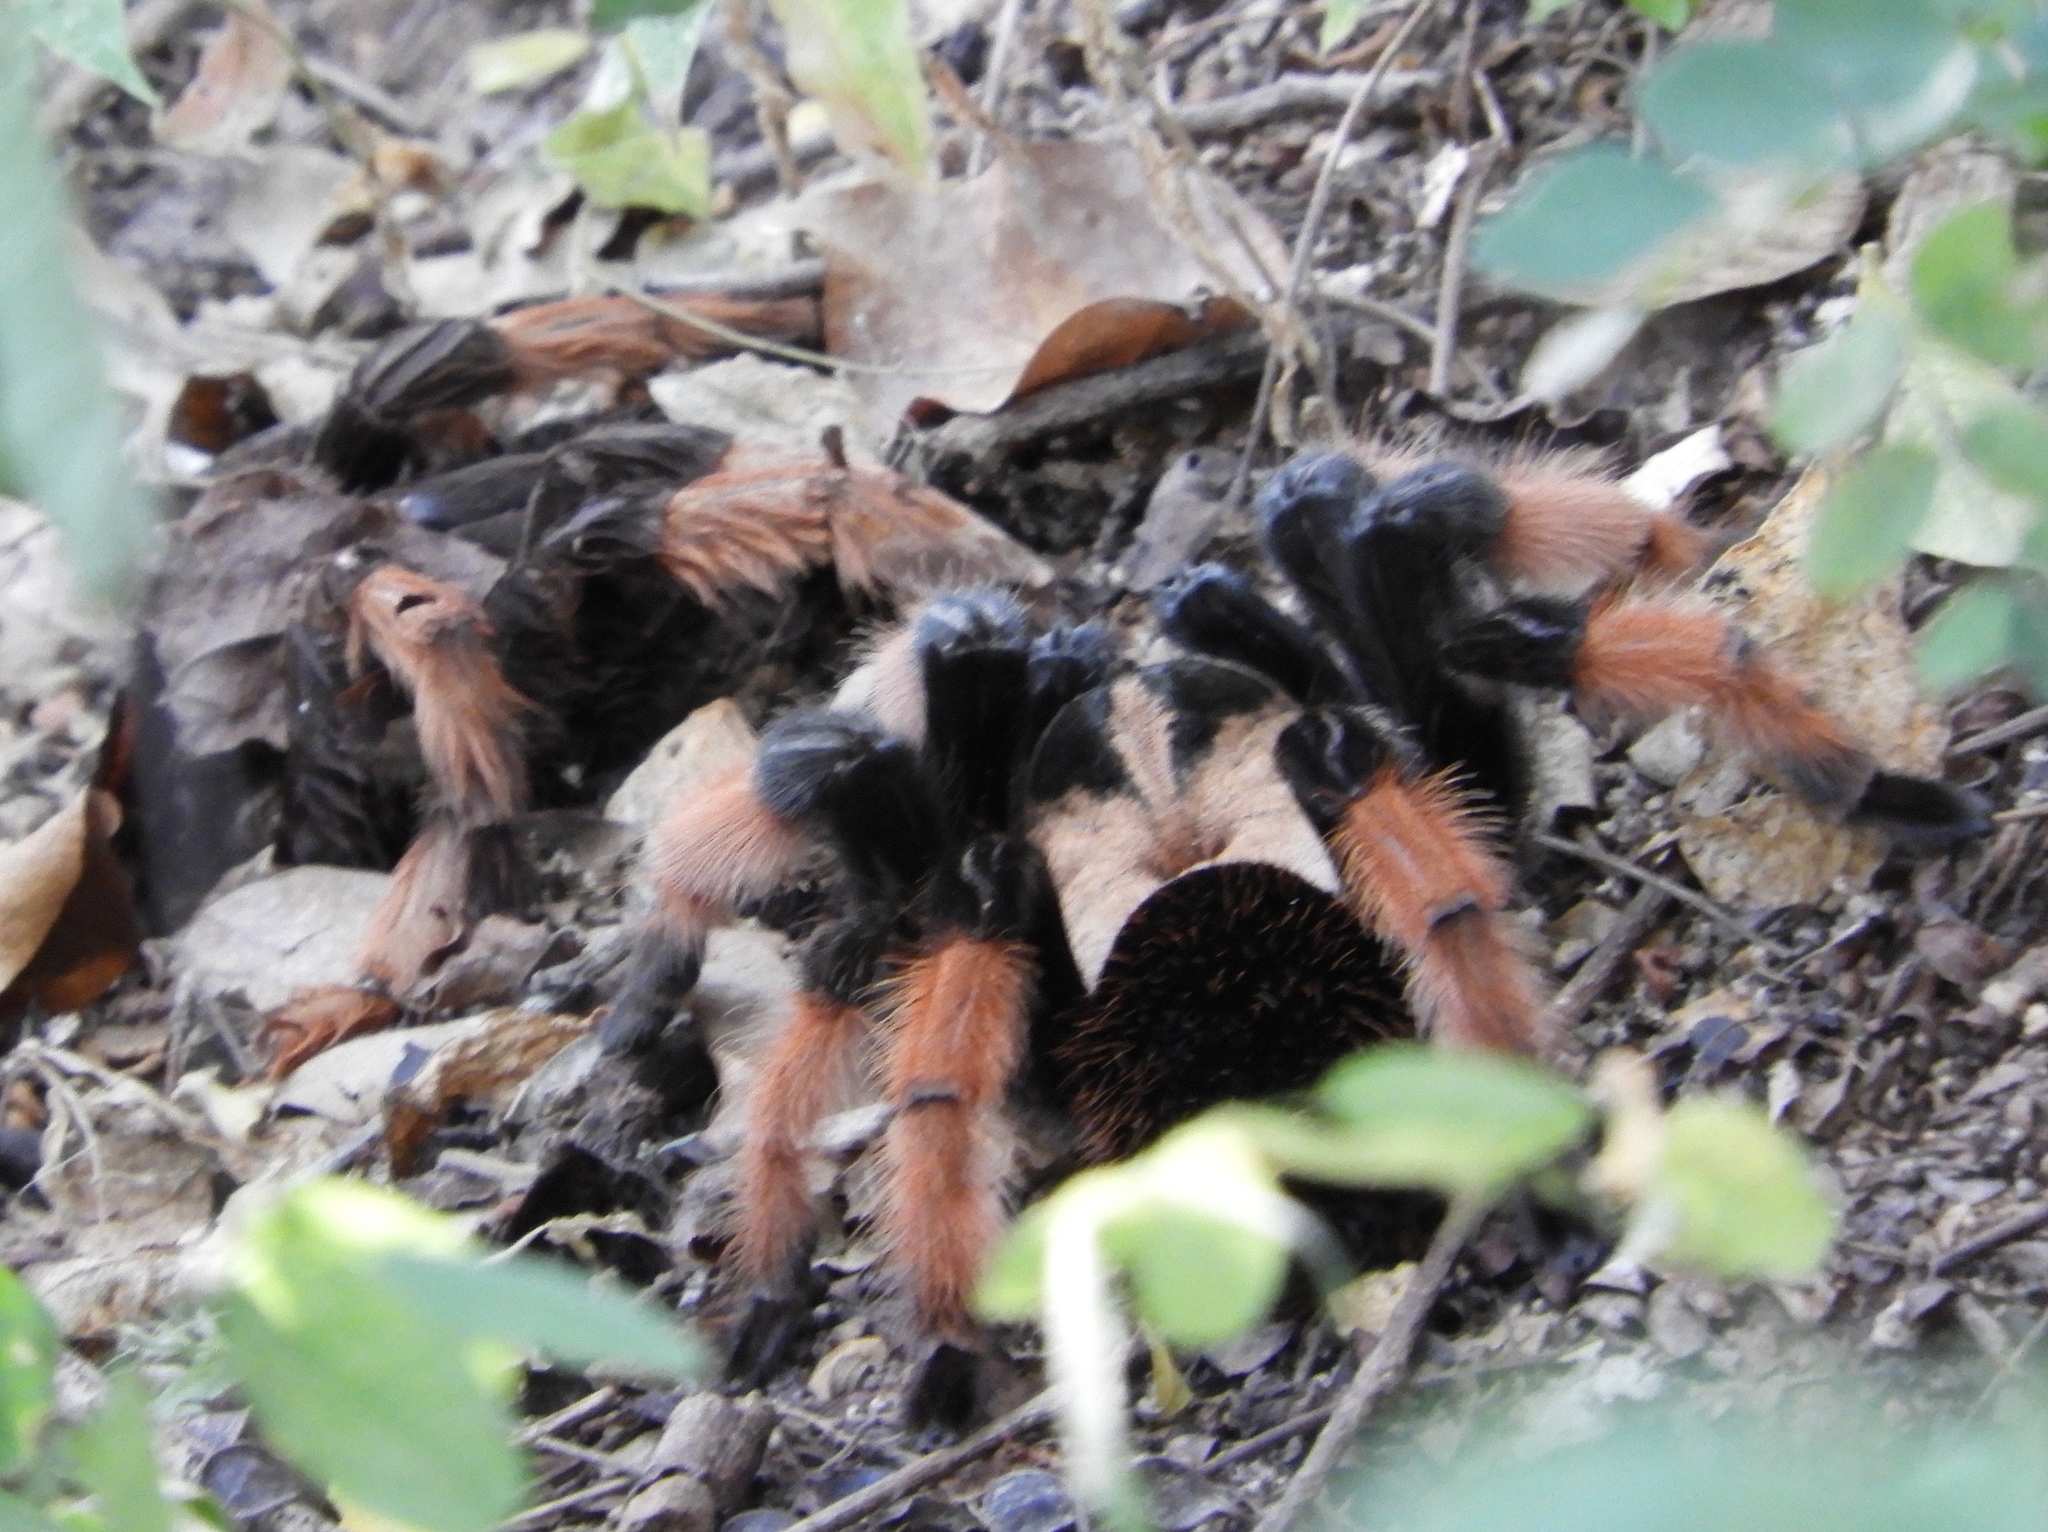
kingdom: Animalia
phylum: Arthropoda
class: Arachnida
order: Araneae
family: Theraphosidae
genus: Brachypelma
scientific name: Brachypelma emilia
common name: Mexican redleg
